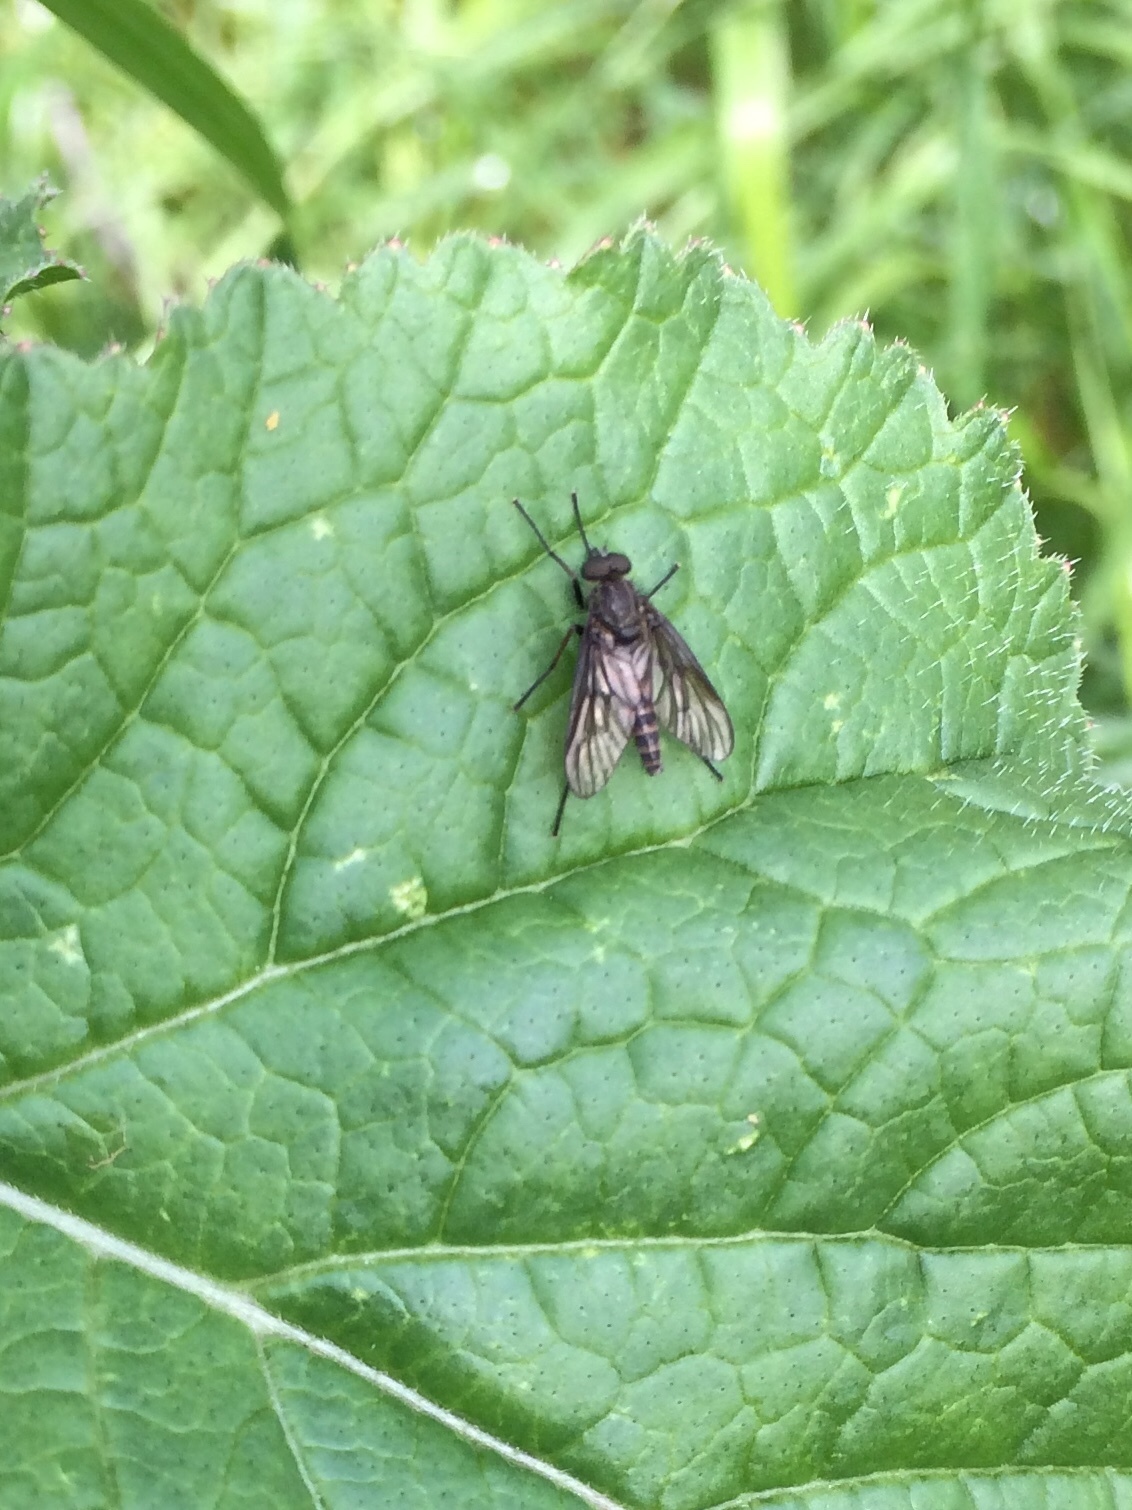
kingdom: Animalia
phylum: Arthropoda
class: Insecta
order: Diptera
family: Rhagionidae
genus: Rhagio
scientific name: Rhagio
